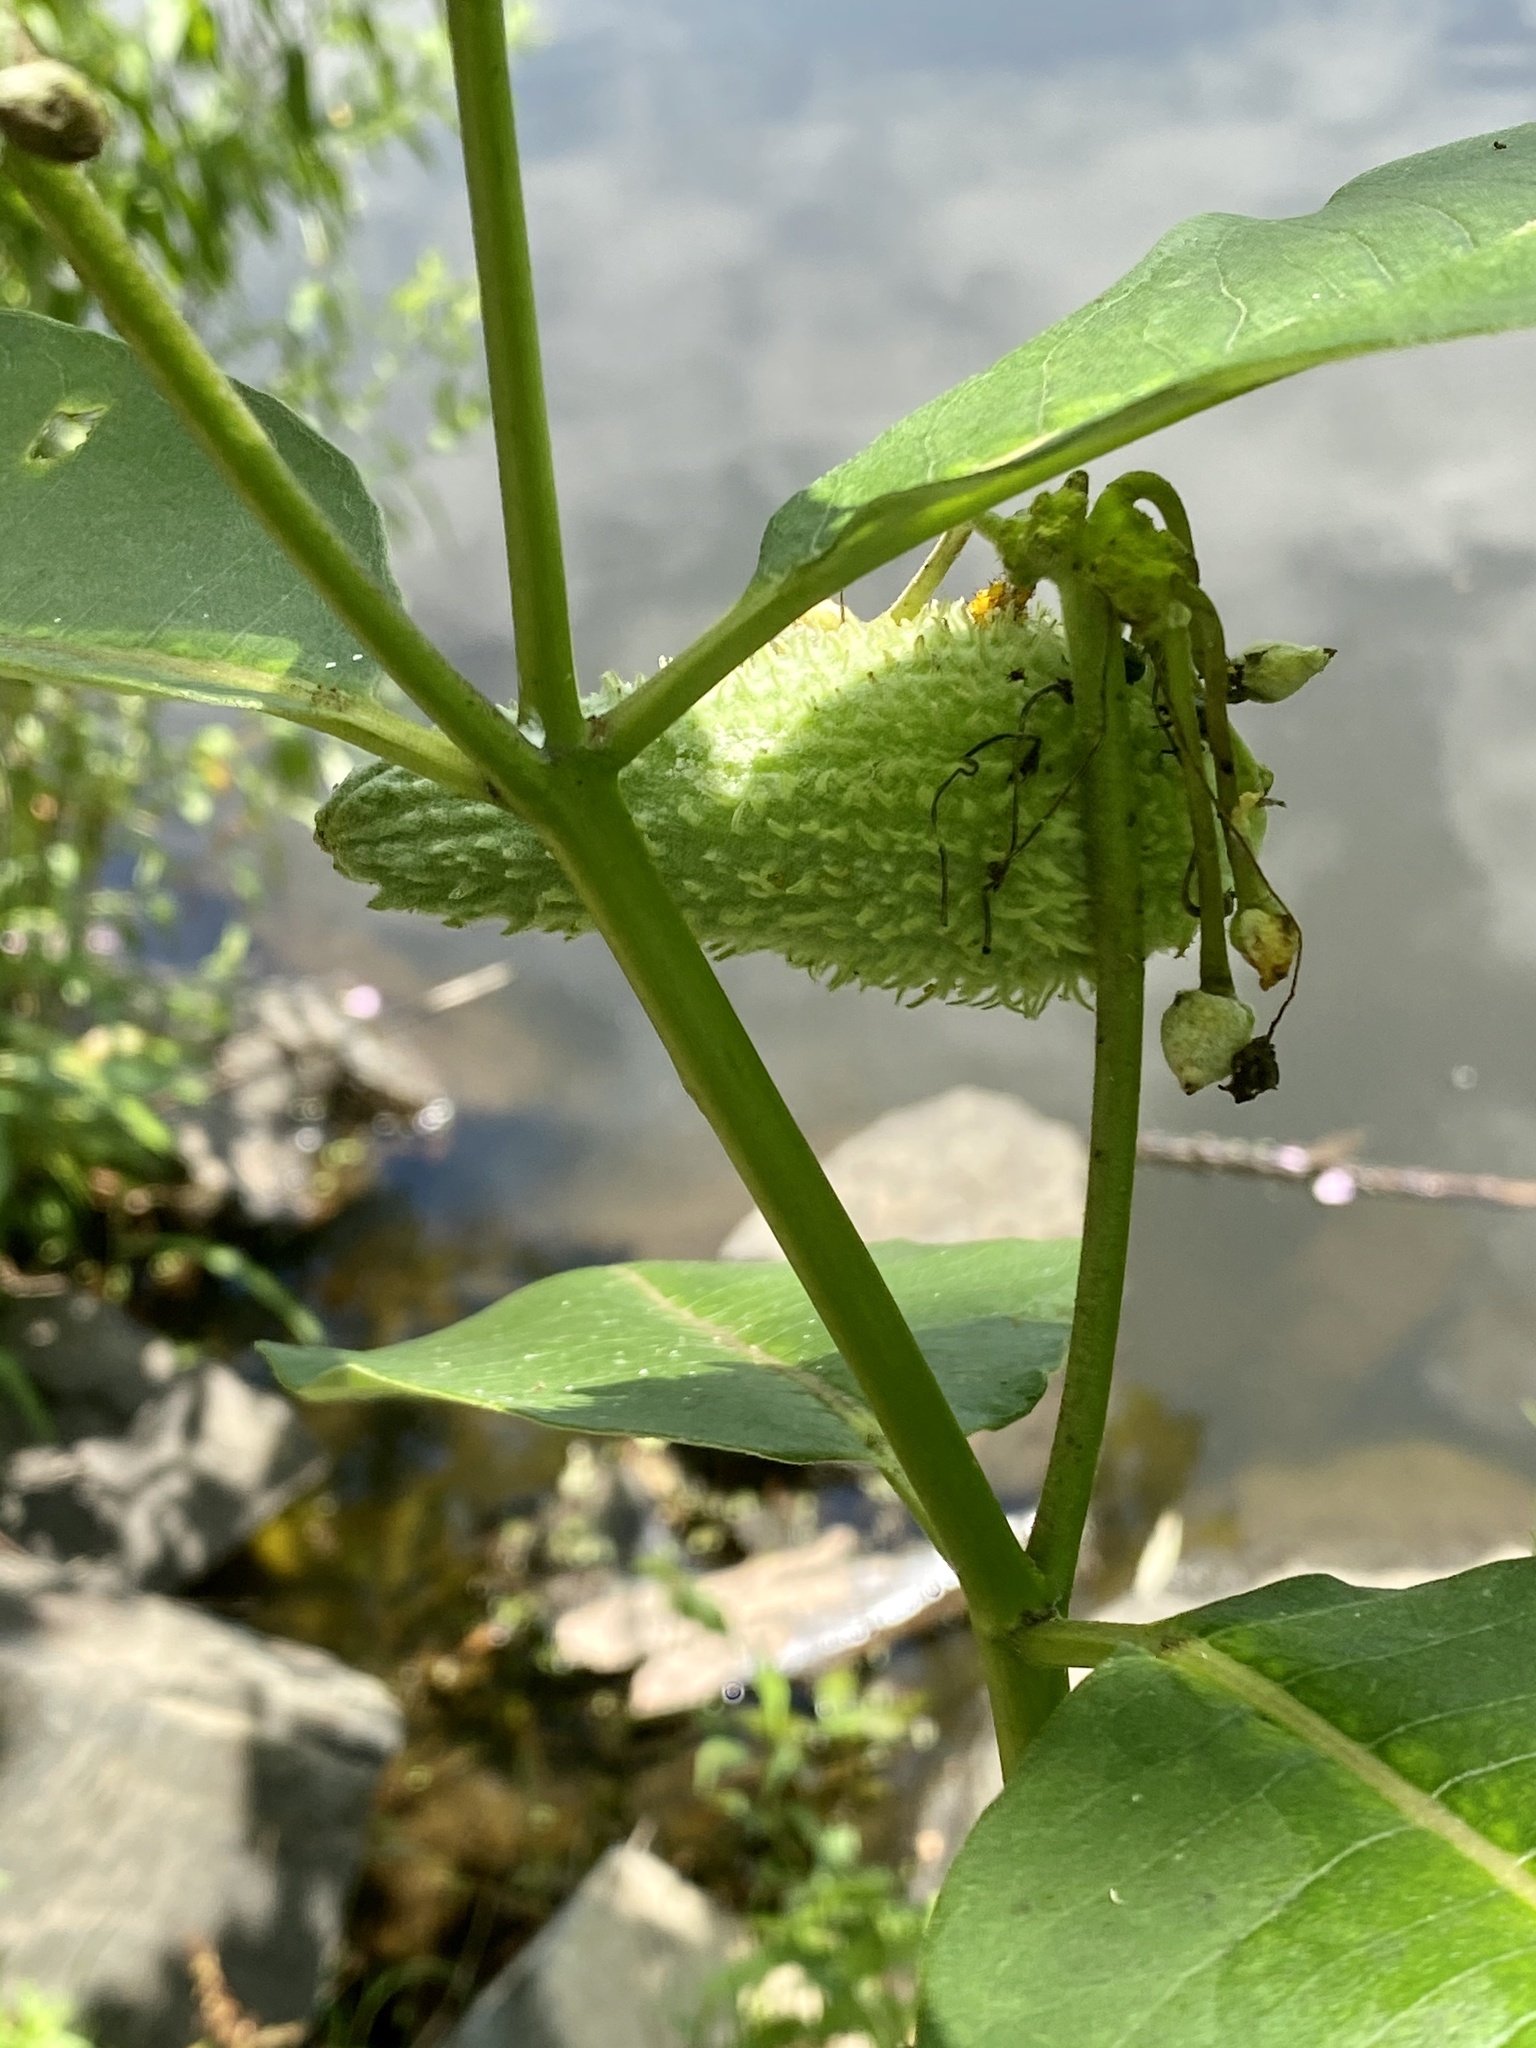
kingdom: Plantae
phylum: Tracheophyta
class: Magnoliopsida
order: Gentianales
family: Apocynaceae
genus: Asclepias
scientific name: Asclepias syriaca
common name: Common milkweed
